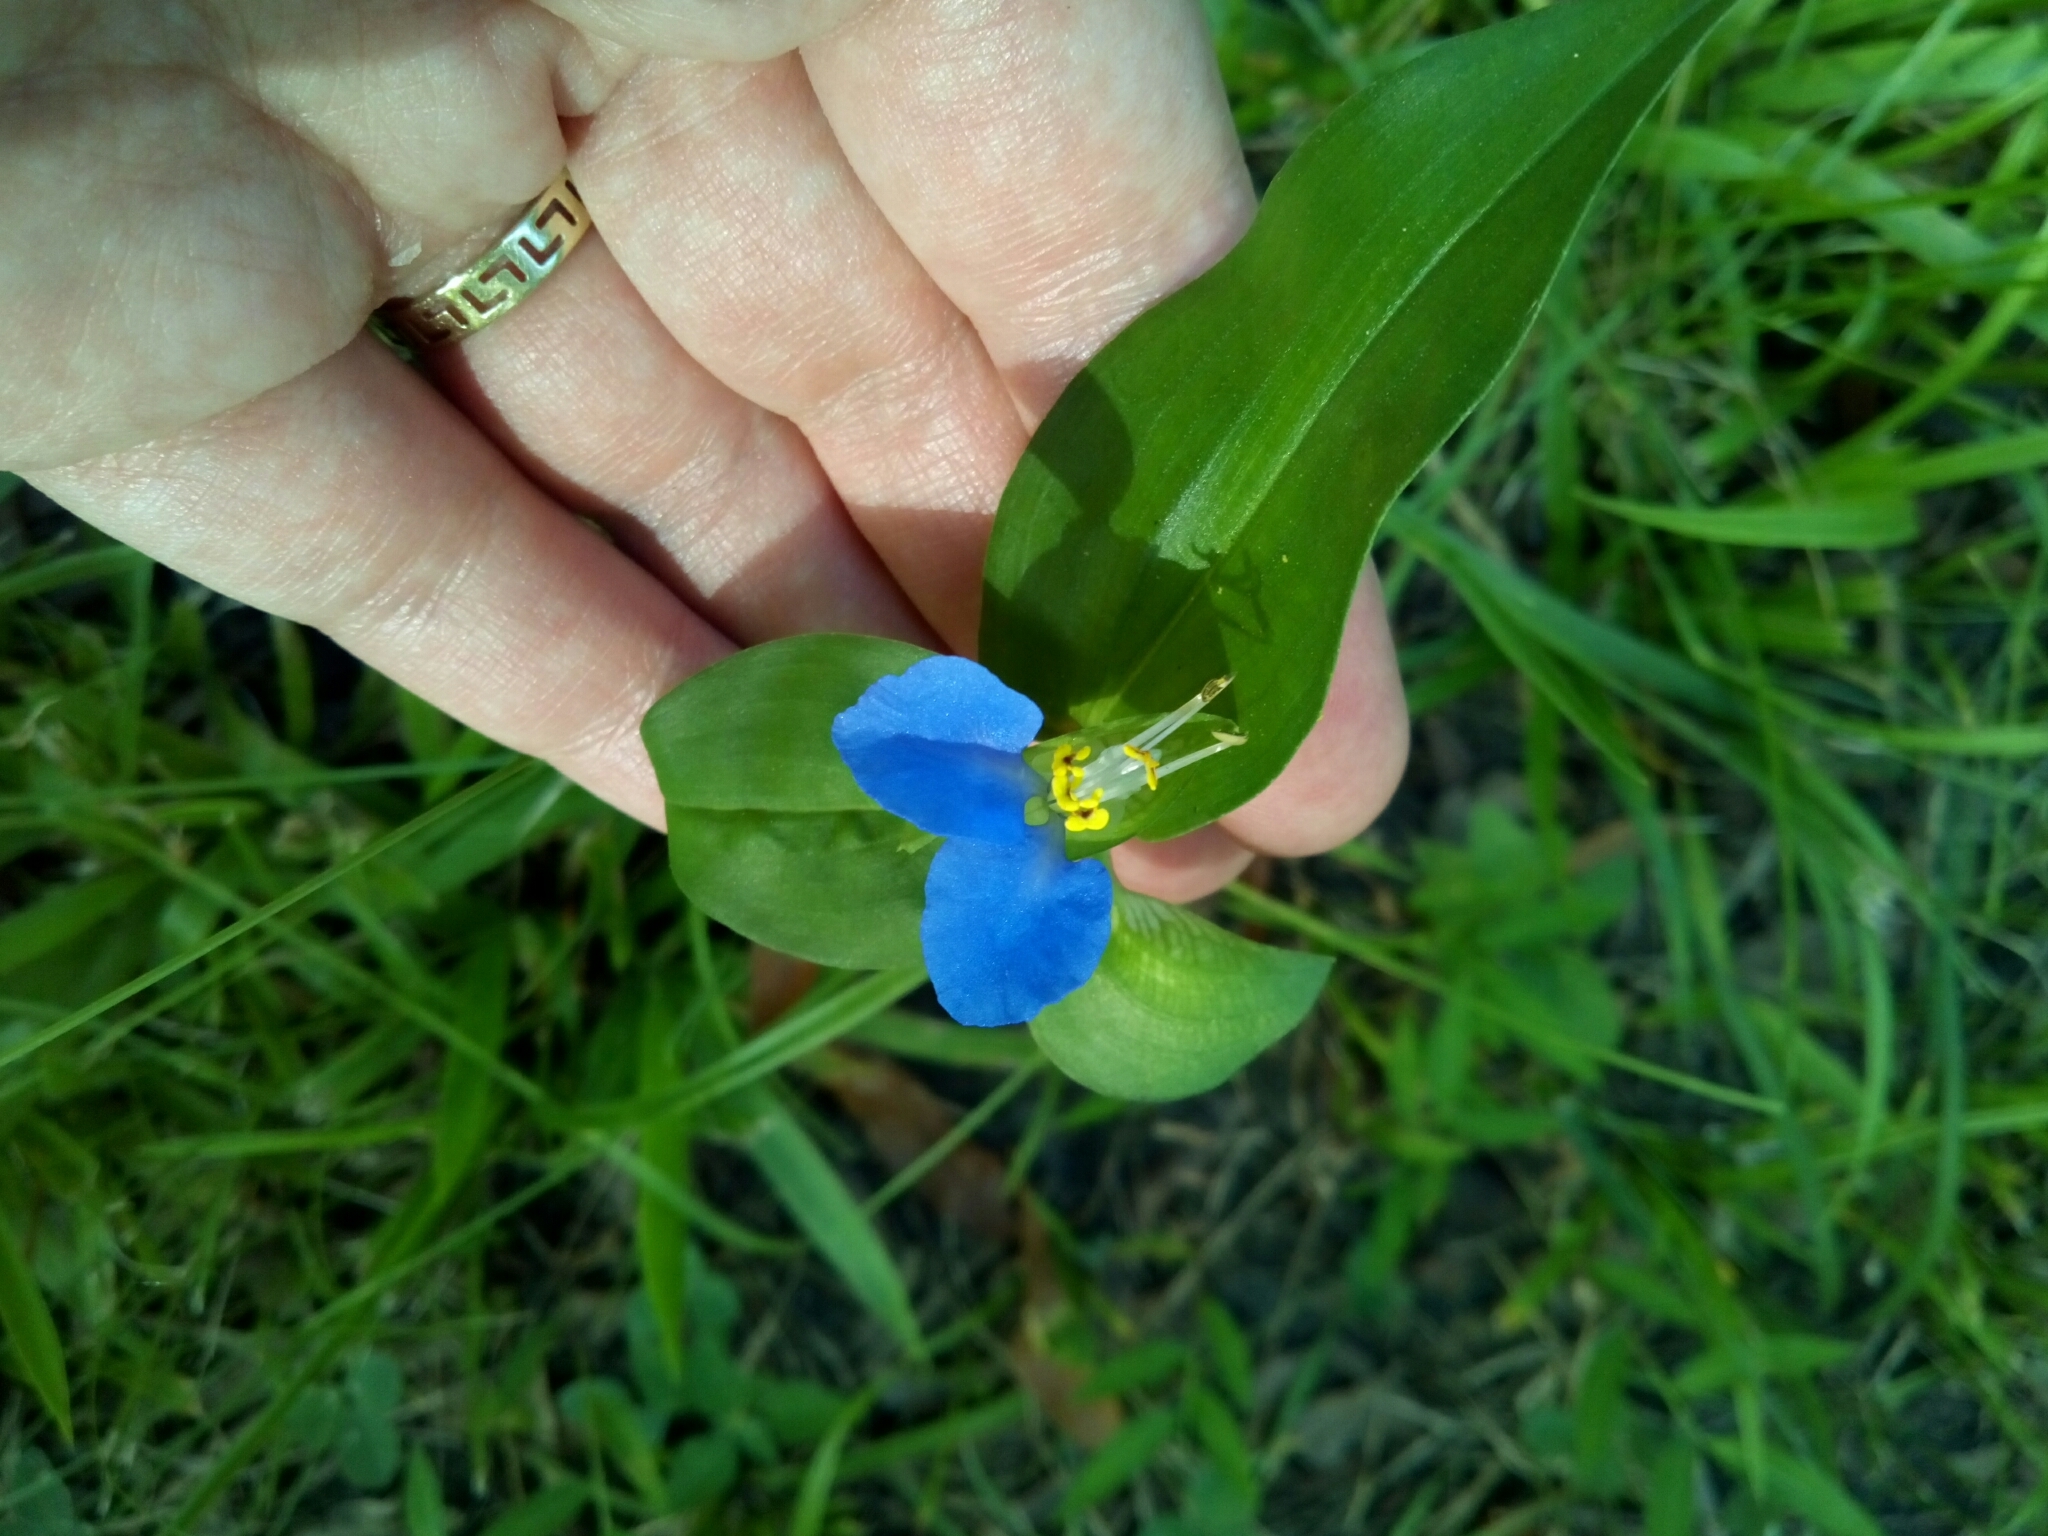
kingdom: Plantae
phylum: Tracheophyta
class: Liliopsida
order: Commelinales
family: Commelinaceae
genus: Commelina
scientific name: Commelina communis
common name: Asiatic dayflower
